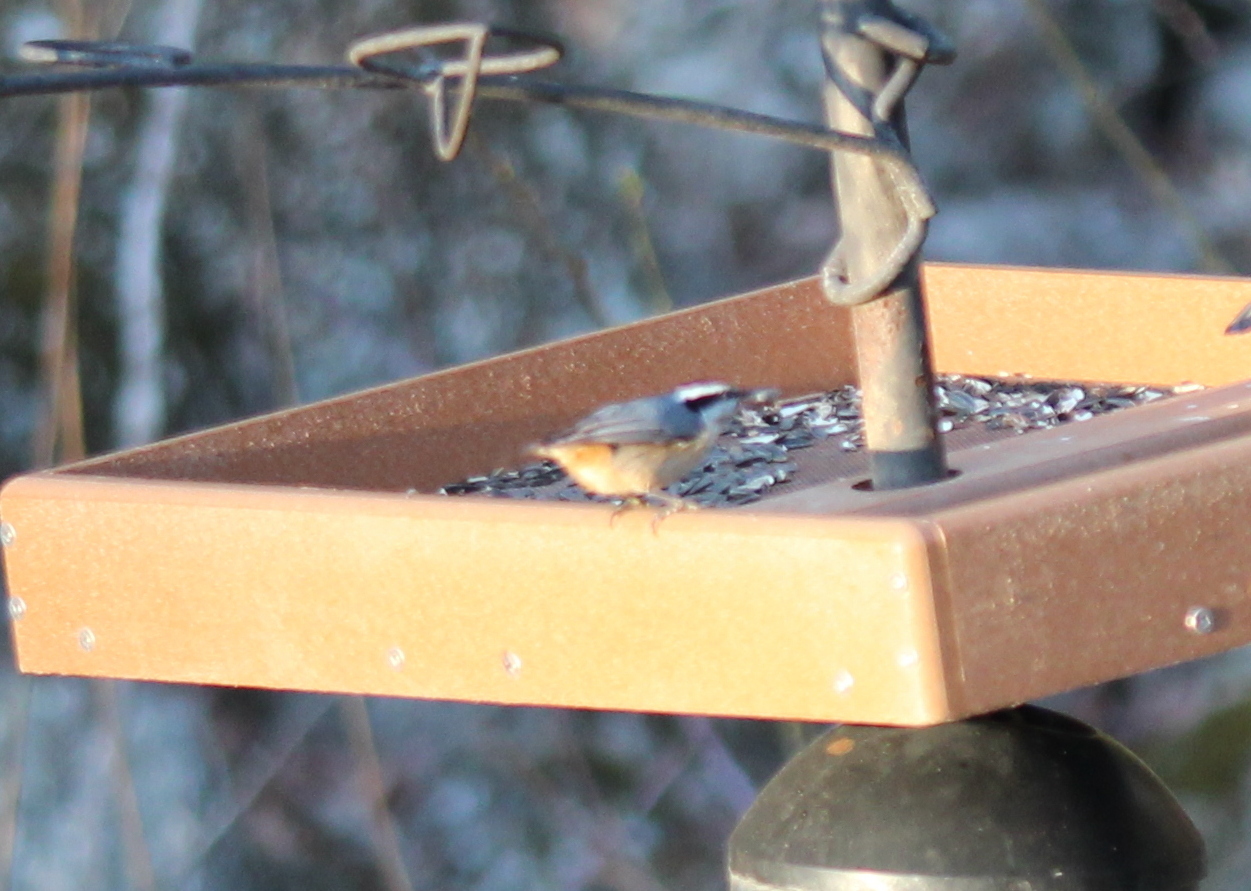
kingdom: Animalia
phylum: Chordata
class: Aves
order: Passeriformes
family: Sittidae
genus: Sitta
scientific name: Sitta canadensis
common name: Red-breasted nuthatch
